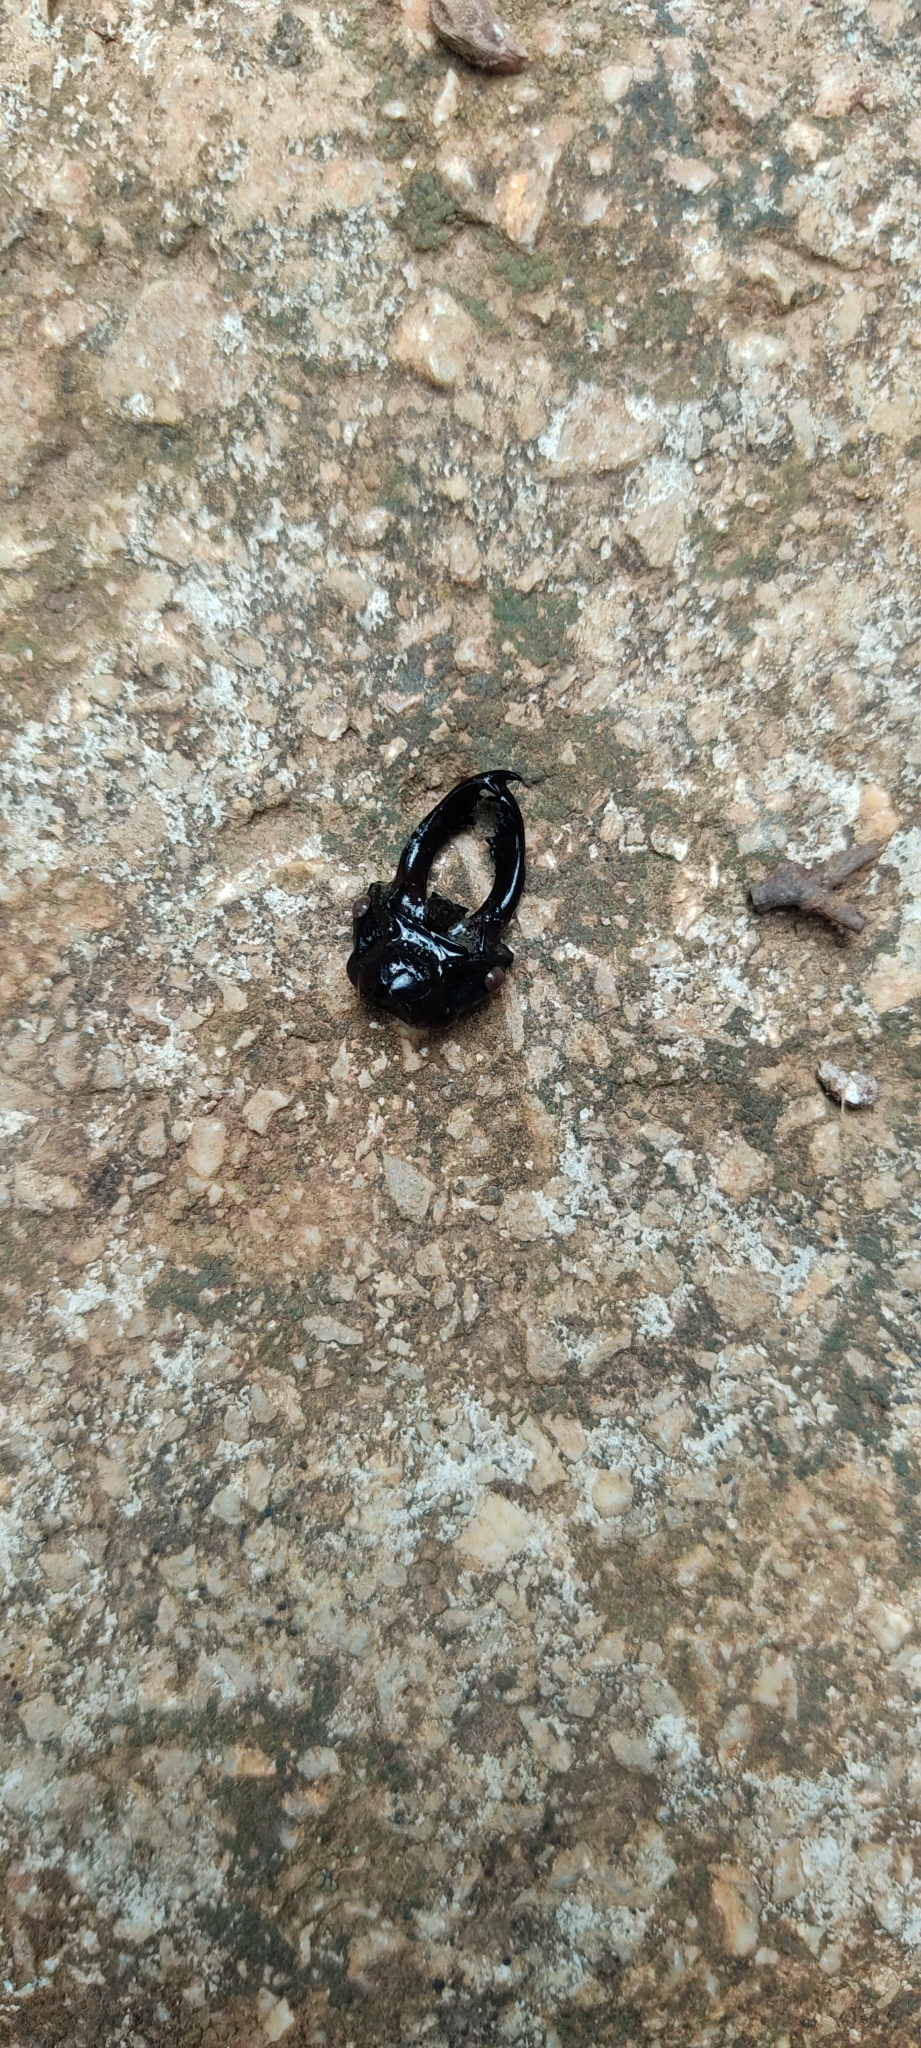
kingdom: Animalia
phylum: Arthropoda
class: Insecta
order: Coleoptera
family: Lucanidae
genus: Lucanus
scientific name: Lucanus cervus
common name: Stag beetle
